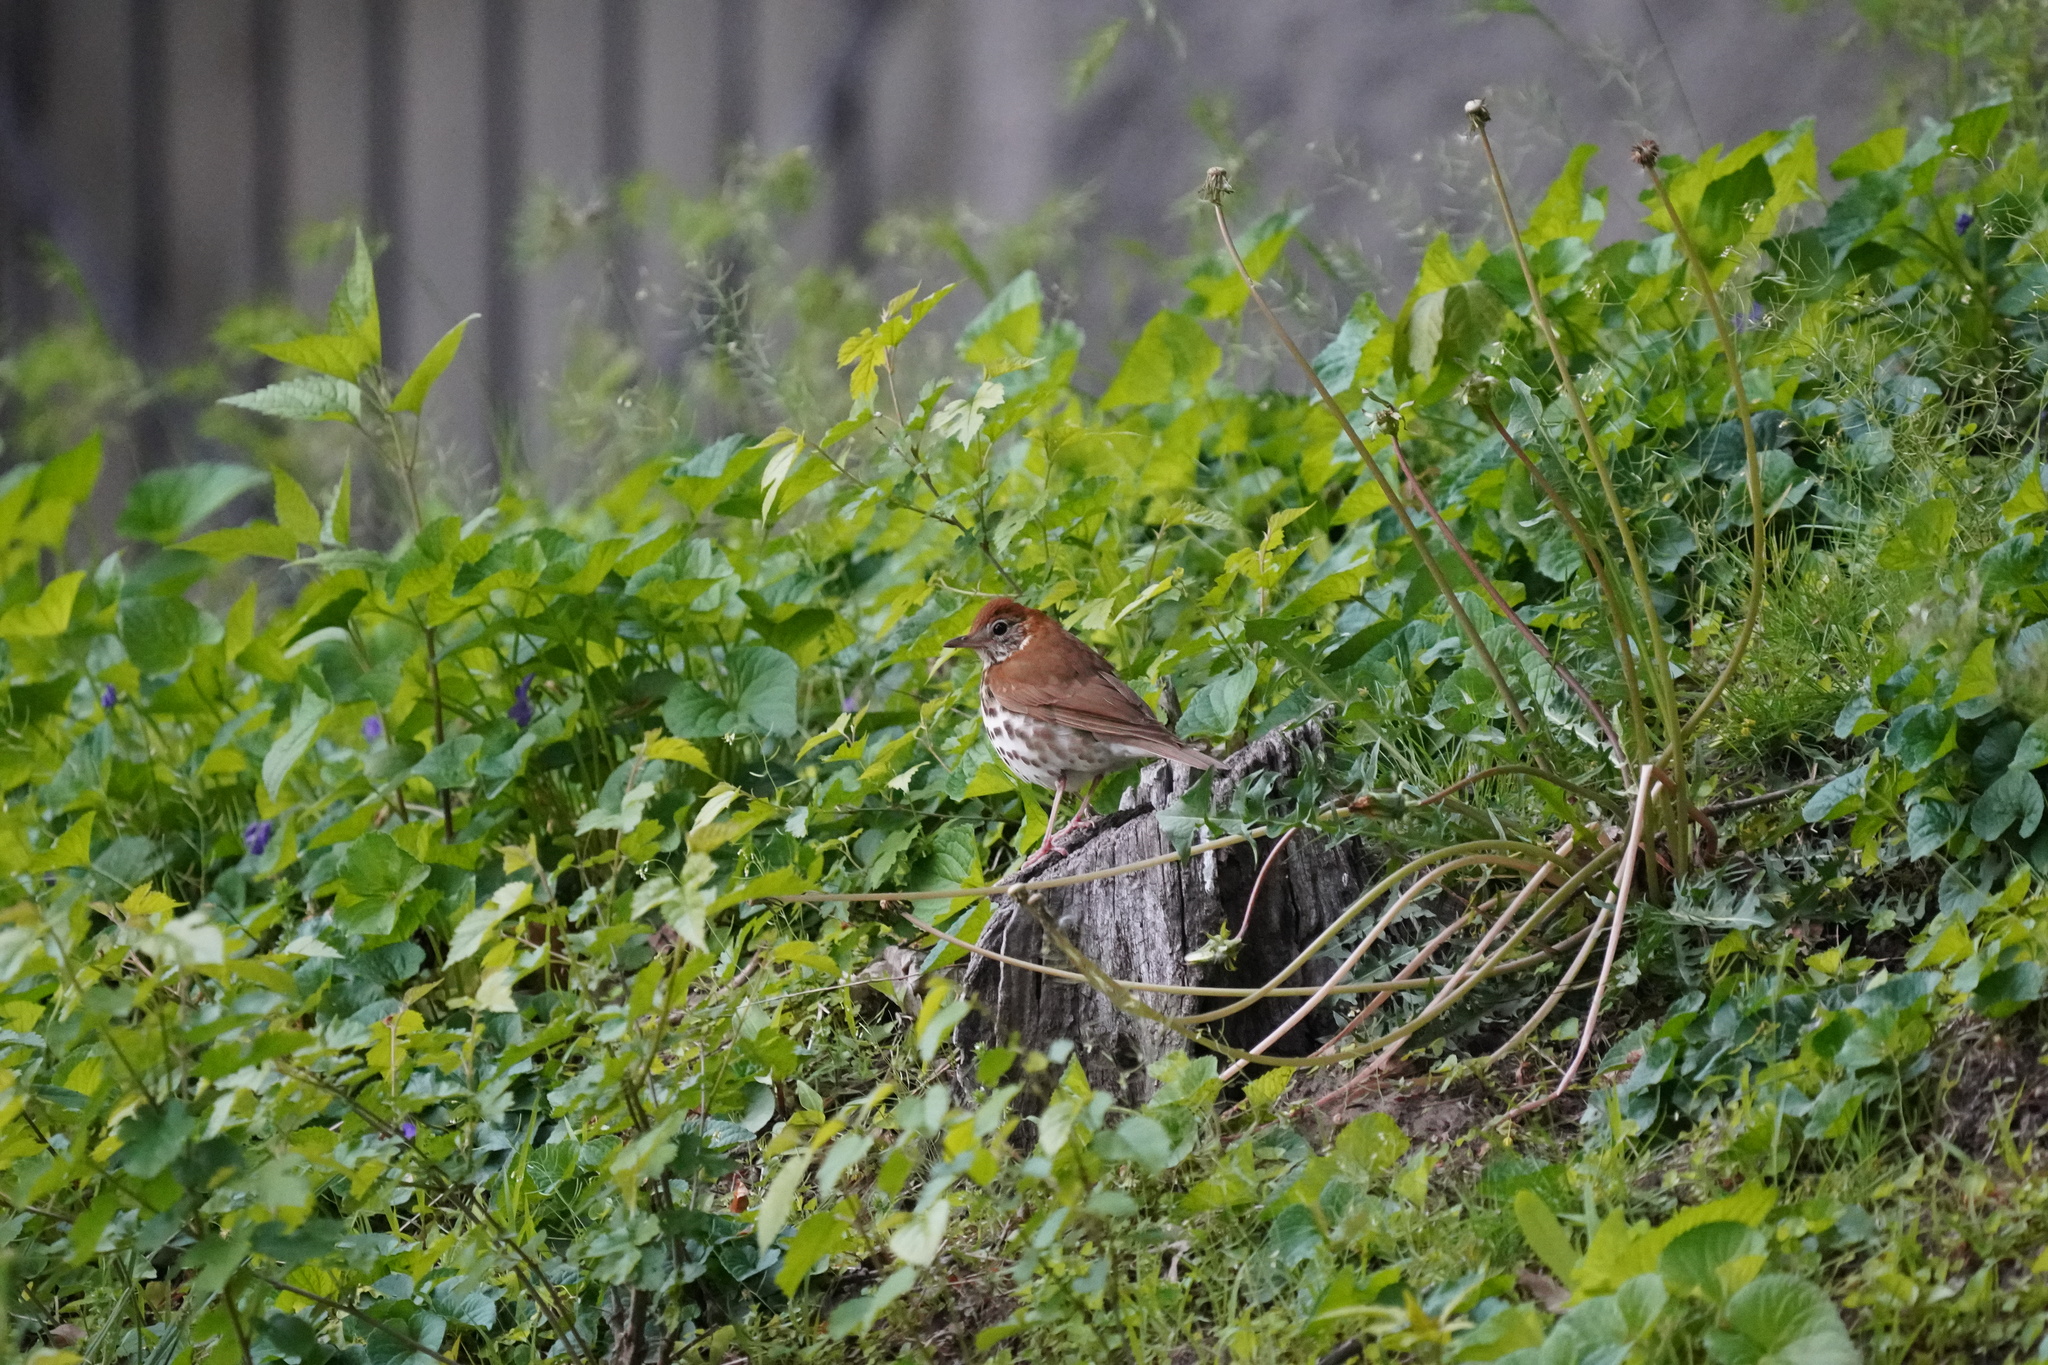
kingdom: Animalia
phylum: Chordata
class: Aves
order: Passeriformes
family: Turdidae
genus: Hylocichla
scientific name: Hylocichla mustelina
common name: Wood thrush
